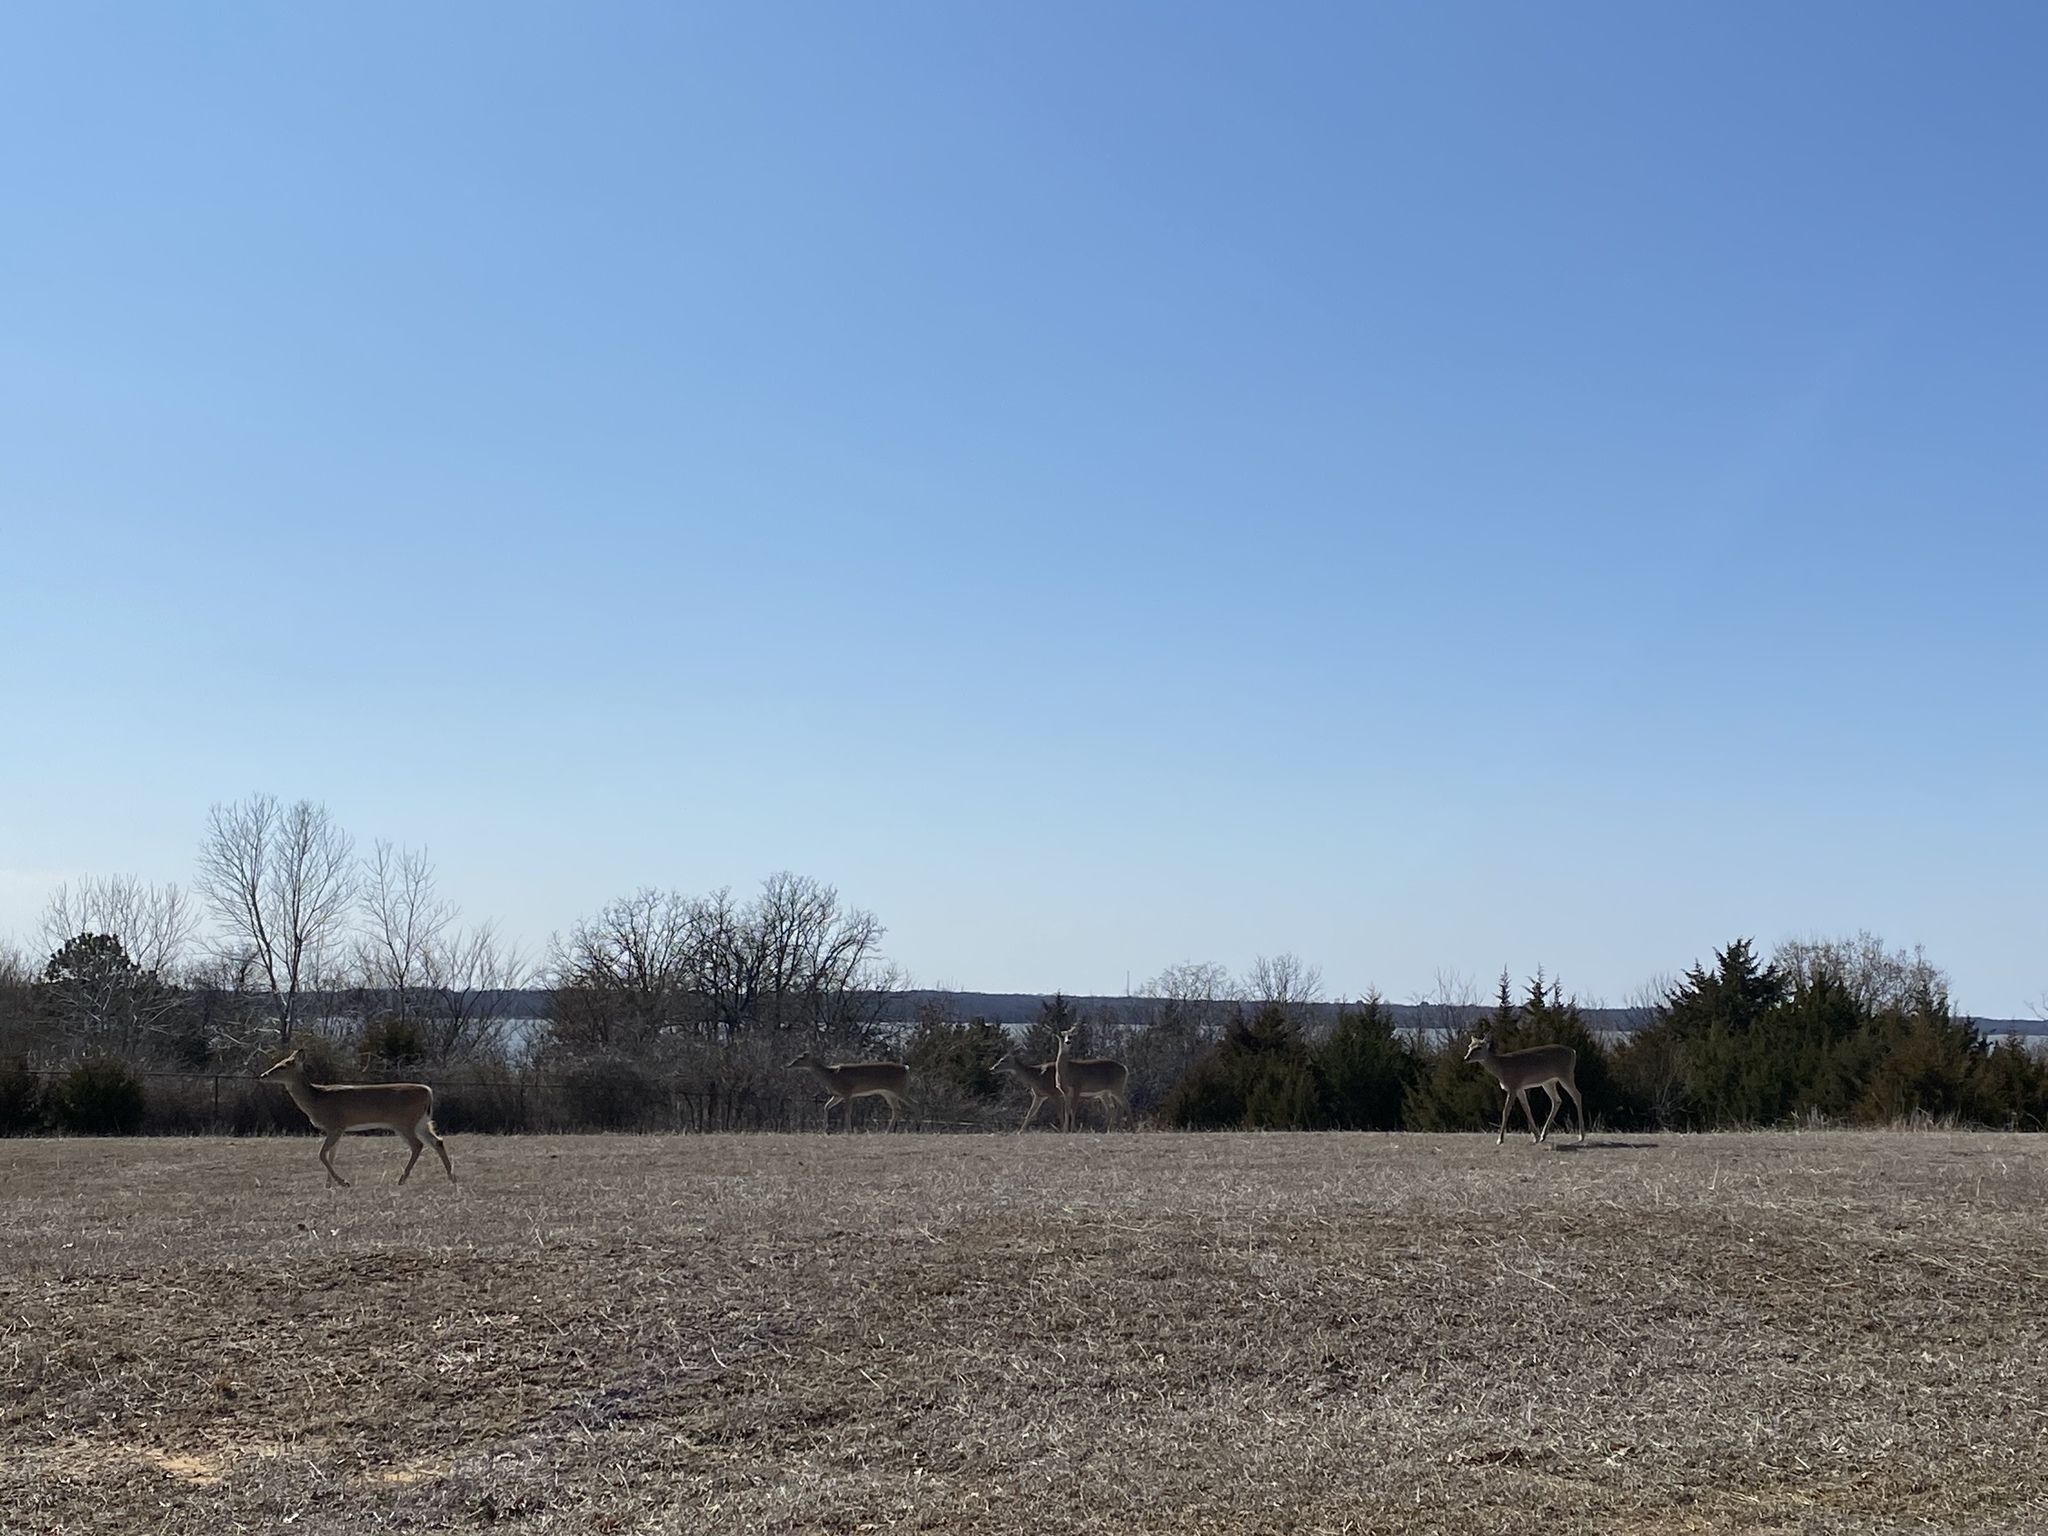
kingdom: Animalia
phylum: Chordata
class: Mammalia
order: Artiodactyla
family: Cervidae
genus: Odocoileus
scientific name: Odocoileus virginianus
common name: White-tailed deer
